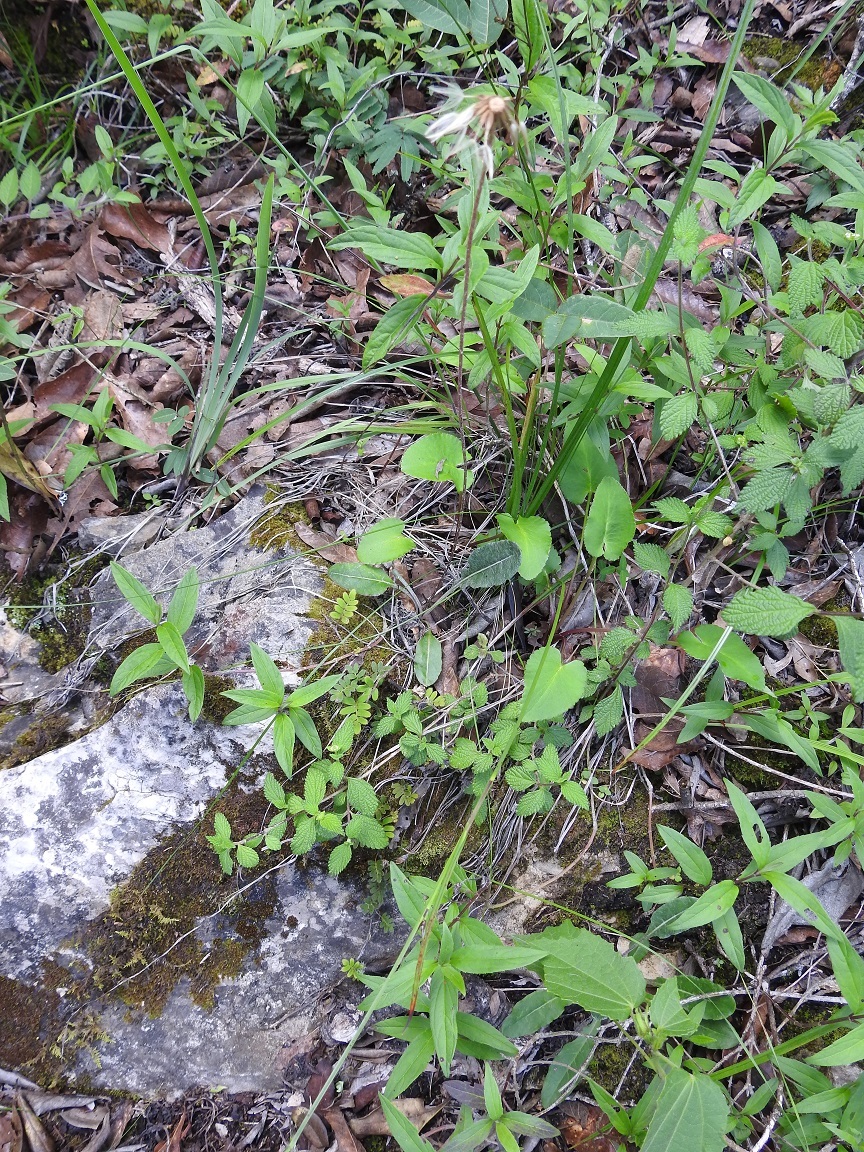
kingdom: Plantae
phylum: Tracheophyta
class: Magnoliopsida
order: Asterales
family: Asteraceae
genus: Chaptalia
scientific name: Chaptalia transiliens
